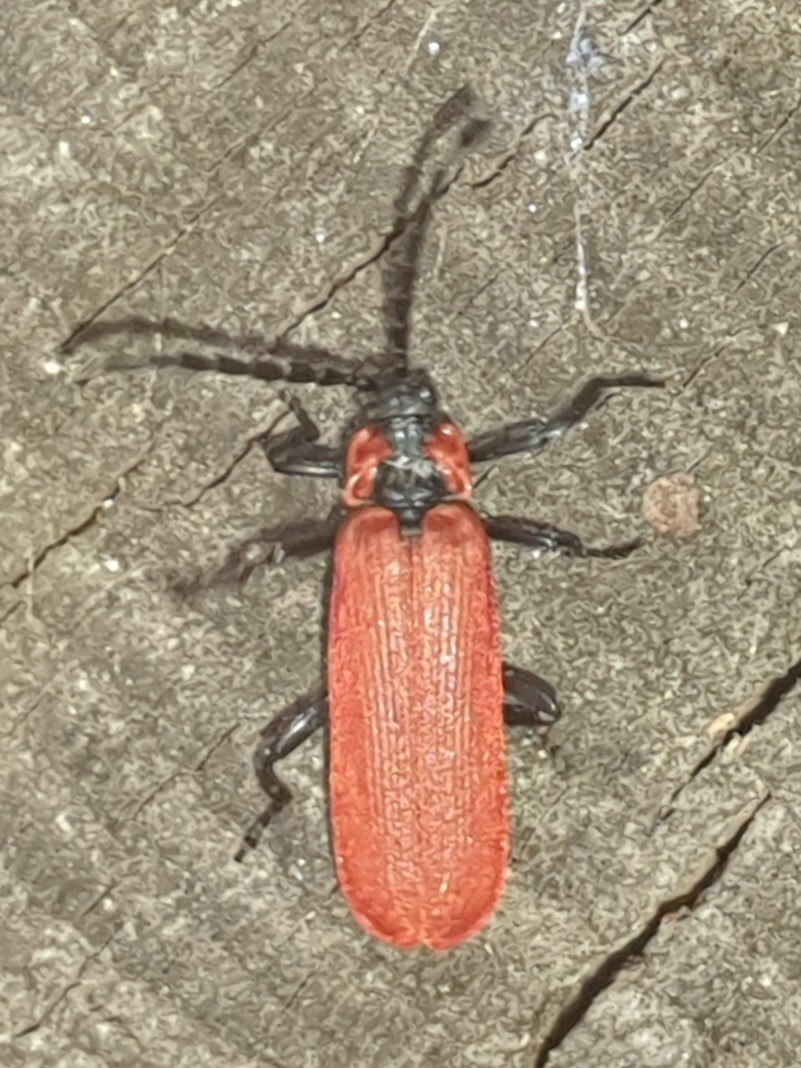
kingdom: Animalia
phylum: Arthropoda
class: Insecta
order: Coleoptera
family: Lycidae
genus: Lygistopterus
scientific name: Lygistopterus sanguineus
